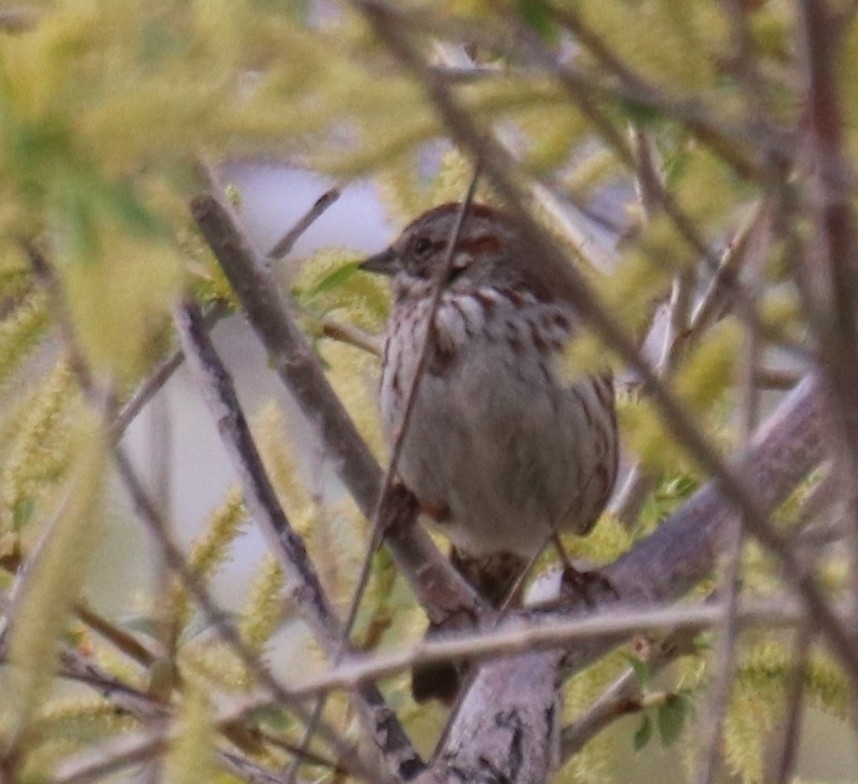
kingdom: Animalia
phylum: Chordata
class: Aves
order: Passeriformes
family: Passerellidae
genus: Melospiza
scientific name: Melospiza melodia
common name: Song sparrow
